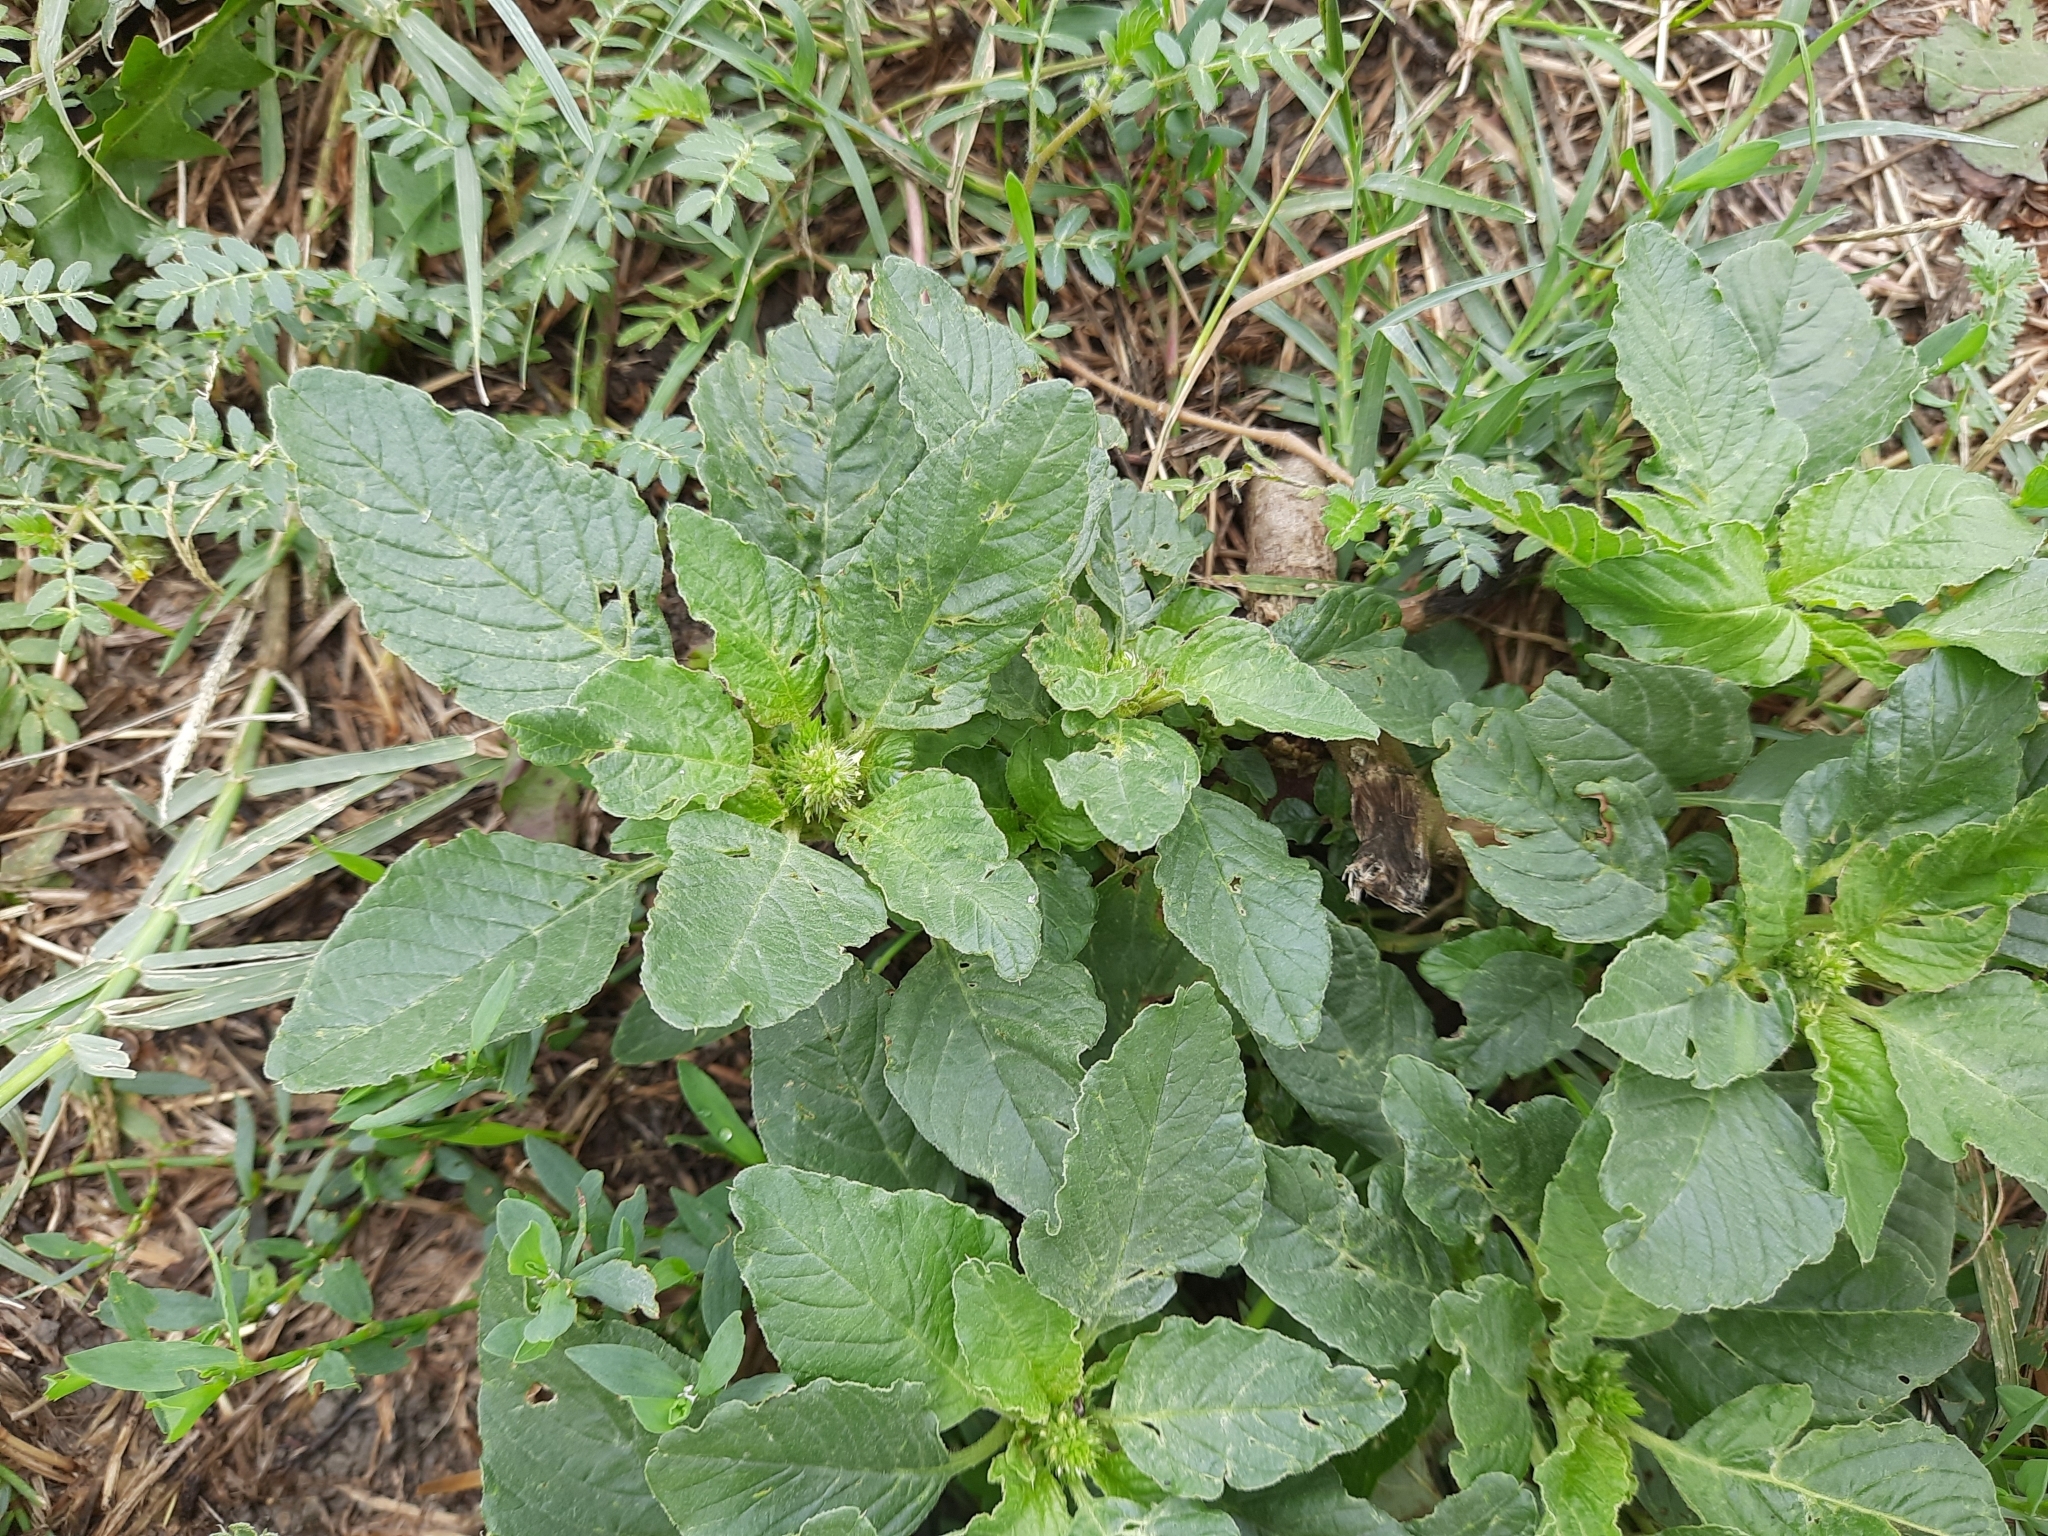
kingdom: Plantae
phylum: Tracheophyta
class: Magnoliopsida
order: Caryophyllales
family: Amaranthaceae
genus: Amaranthus
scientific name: Amaranthus retroflexus
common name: Redroot amaranth
